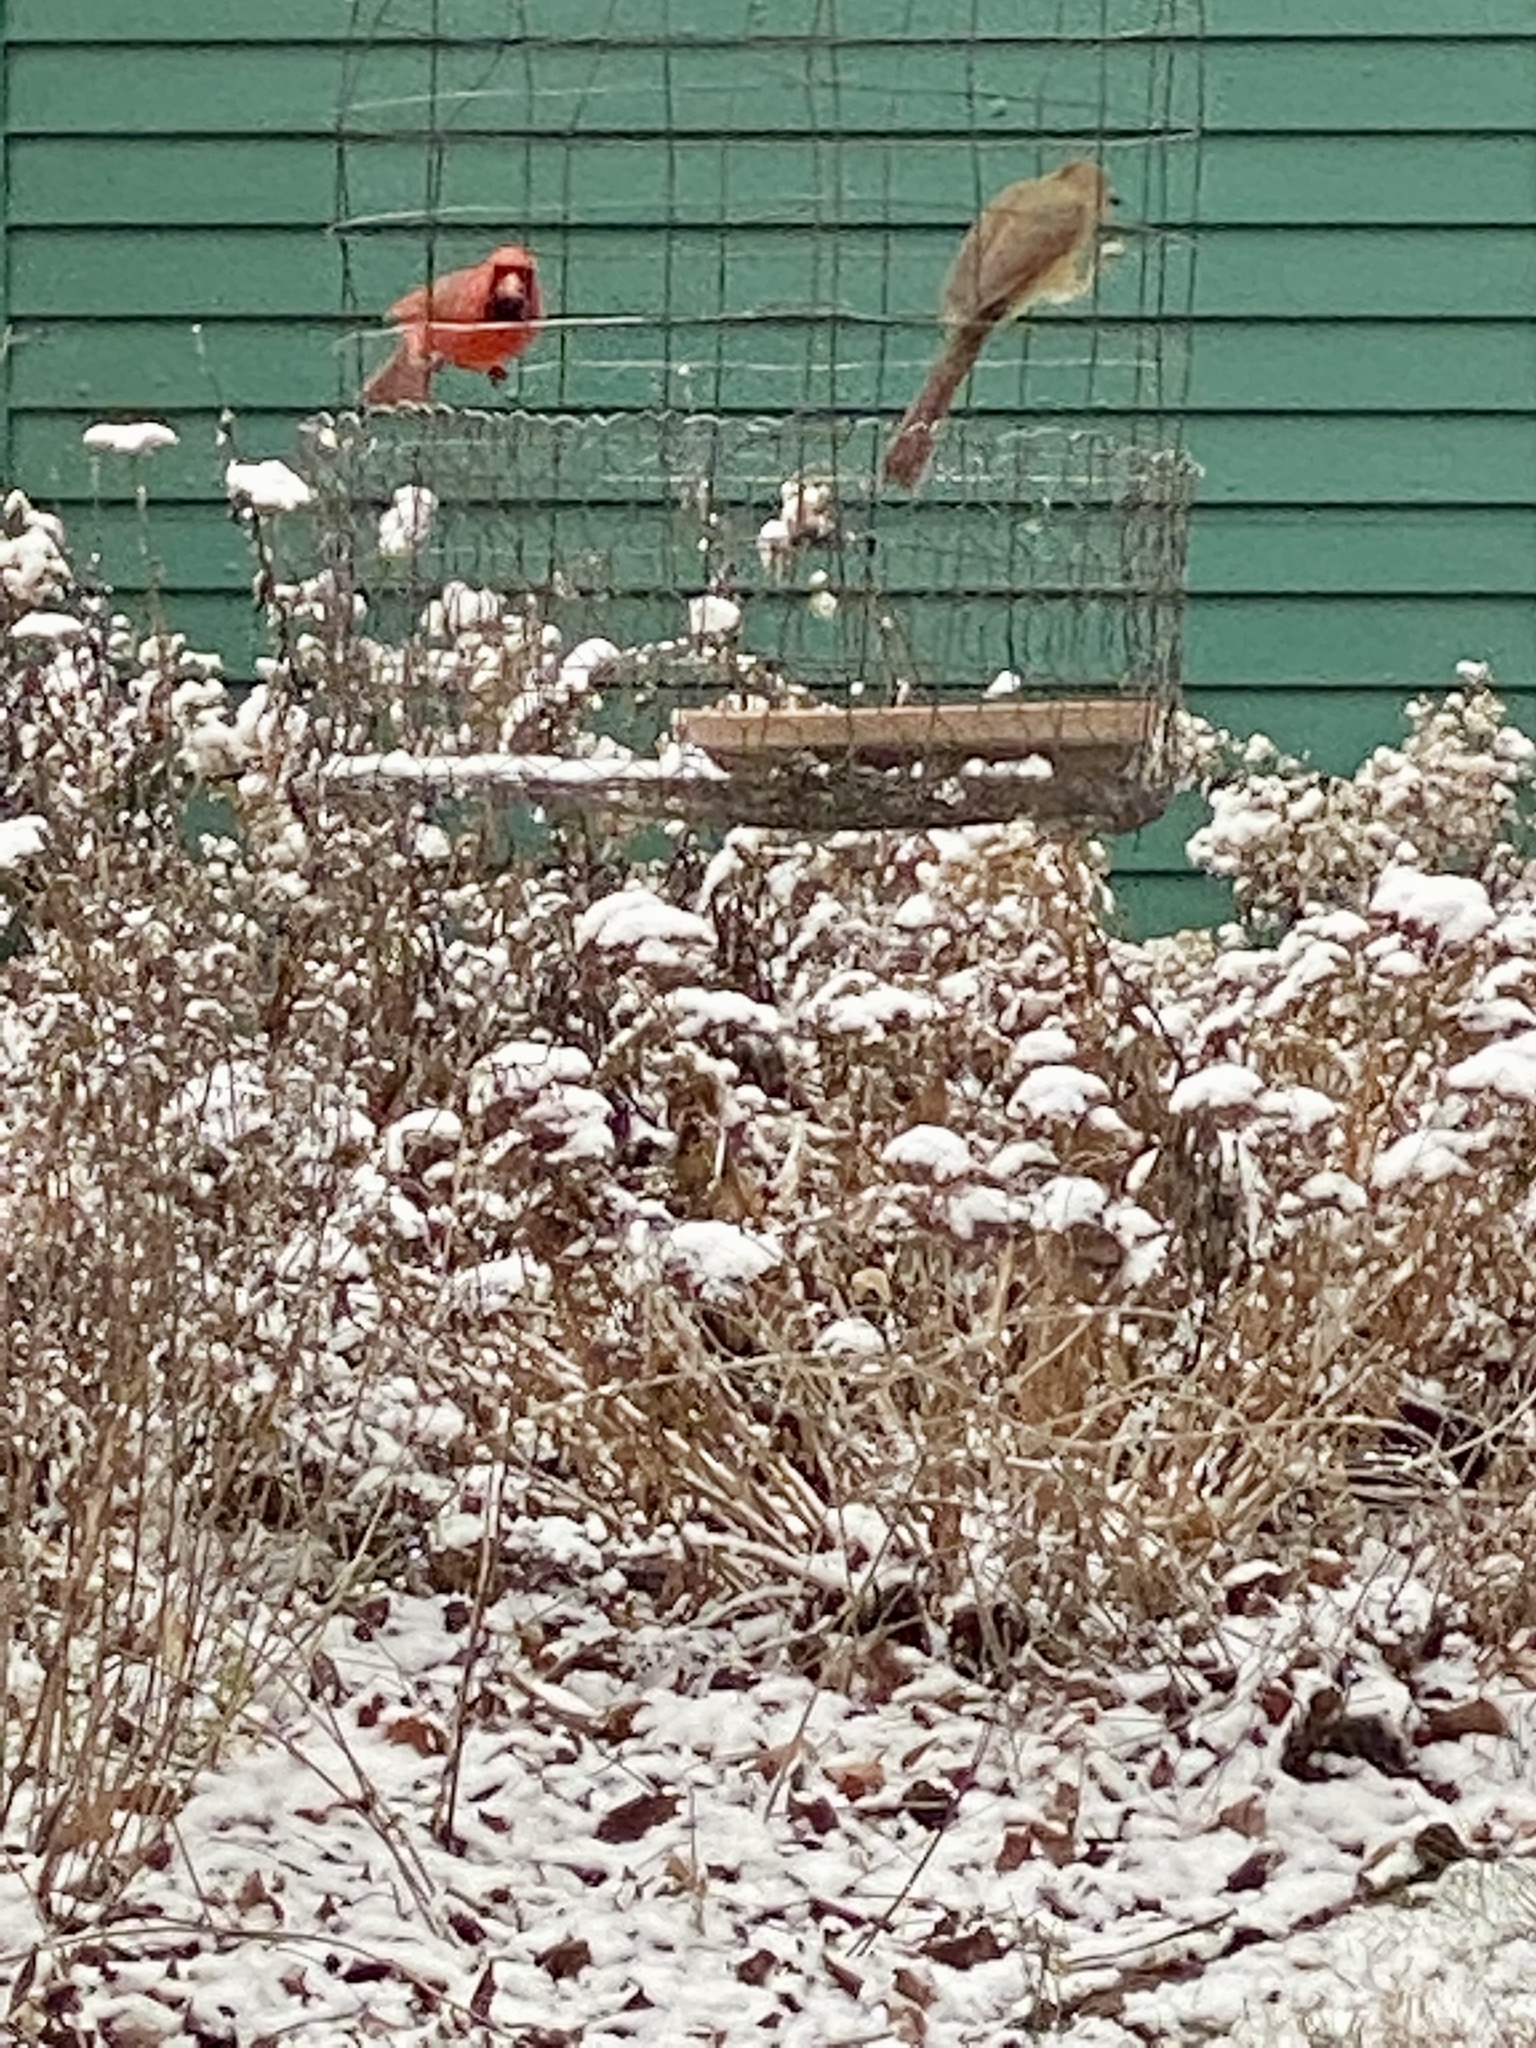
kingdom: Animalia
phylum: Chordata
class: Aves
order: Passeriformes
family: Cardinalidae
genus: Cardinalis
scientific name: Cardinalis cardinalis
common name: Northern cardinal
